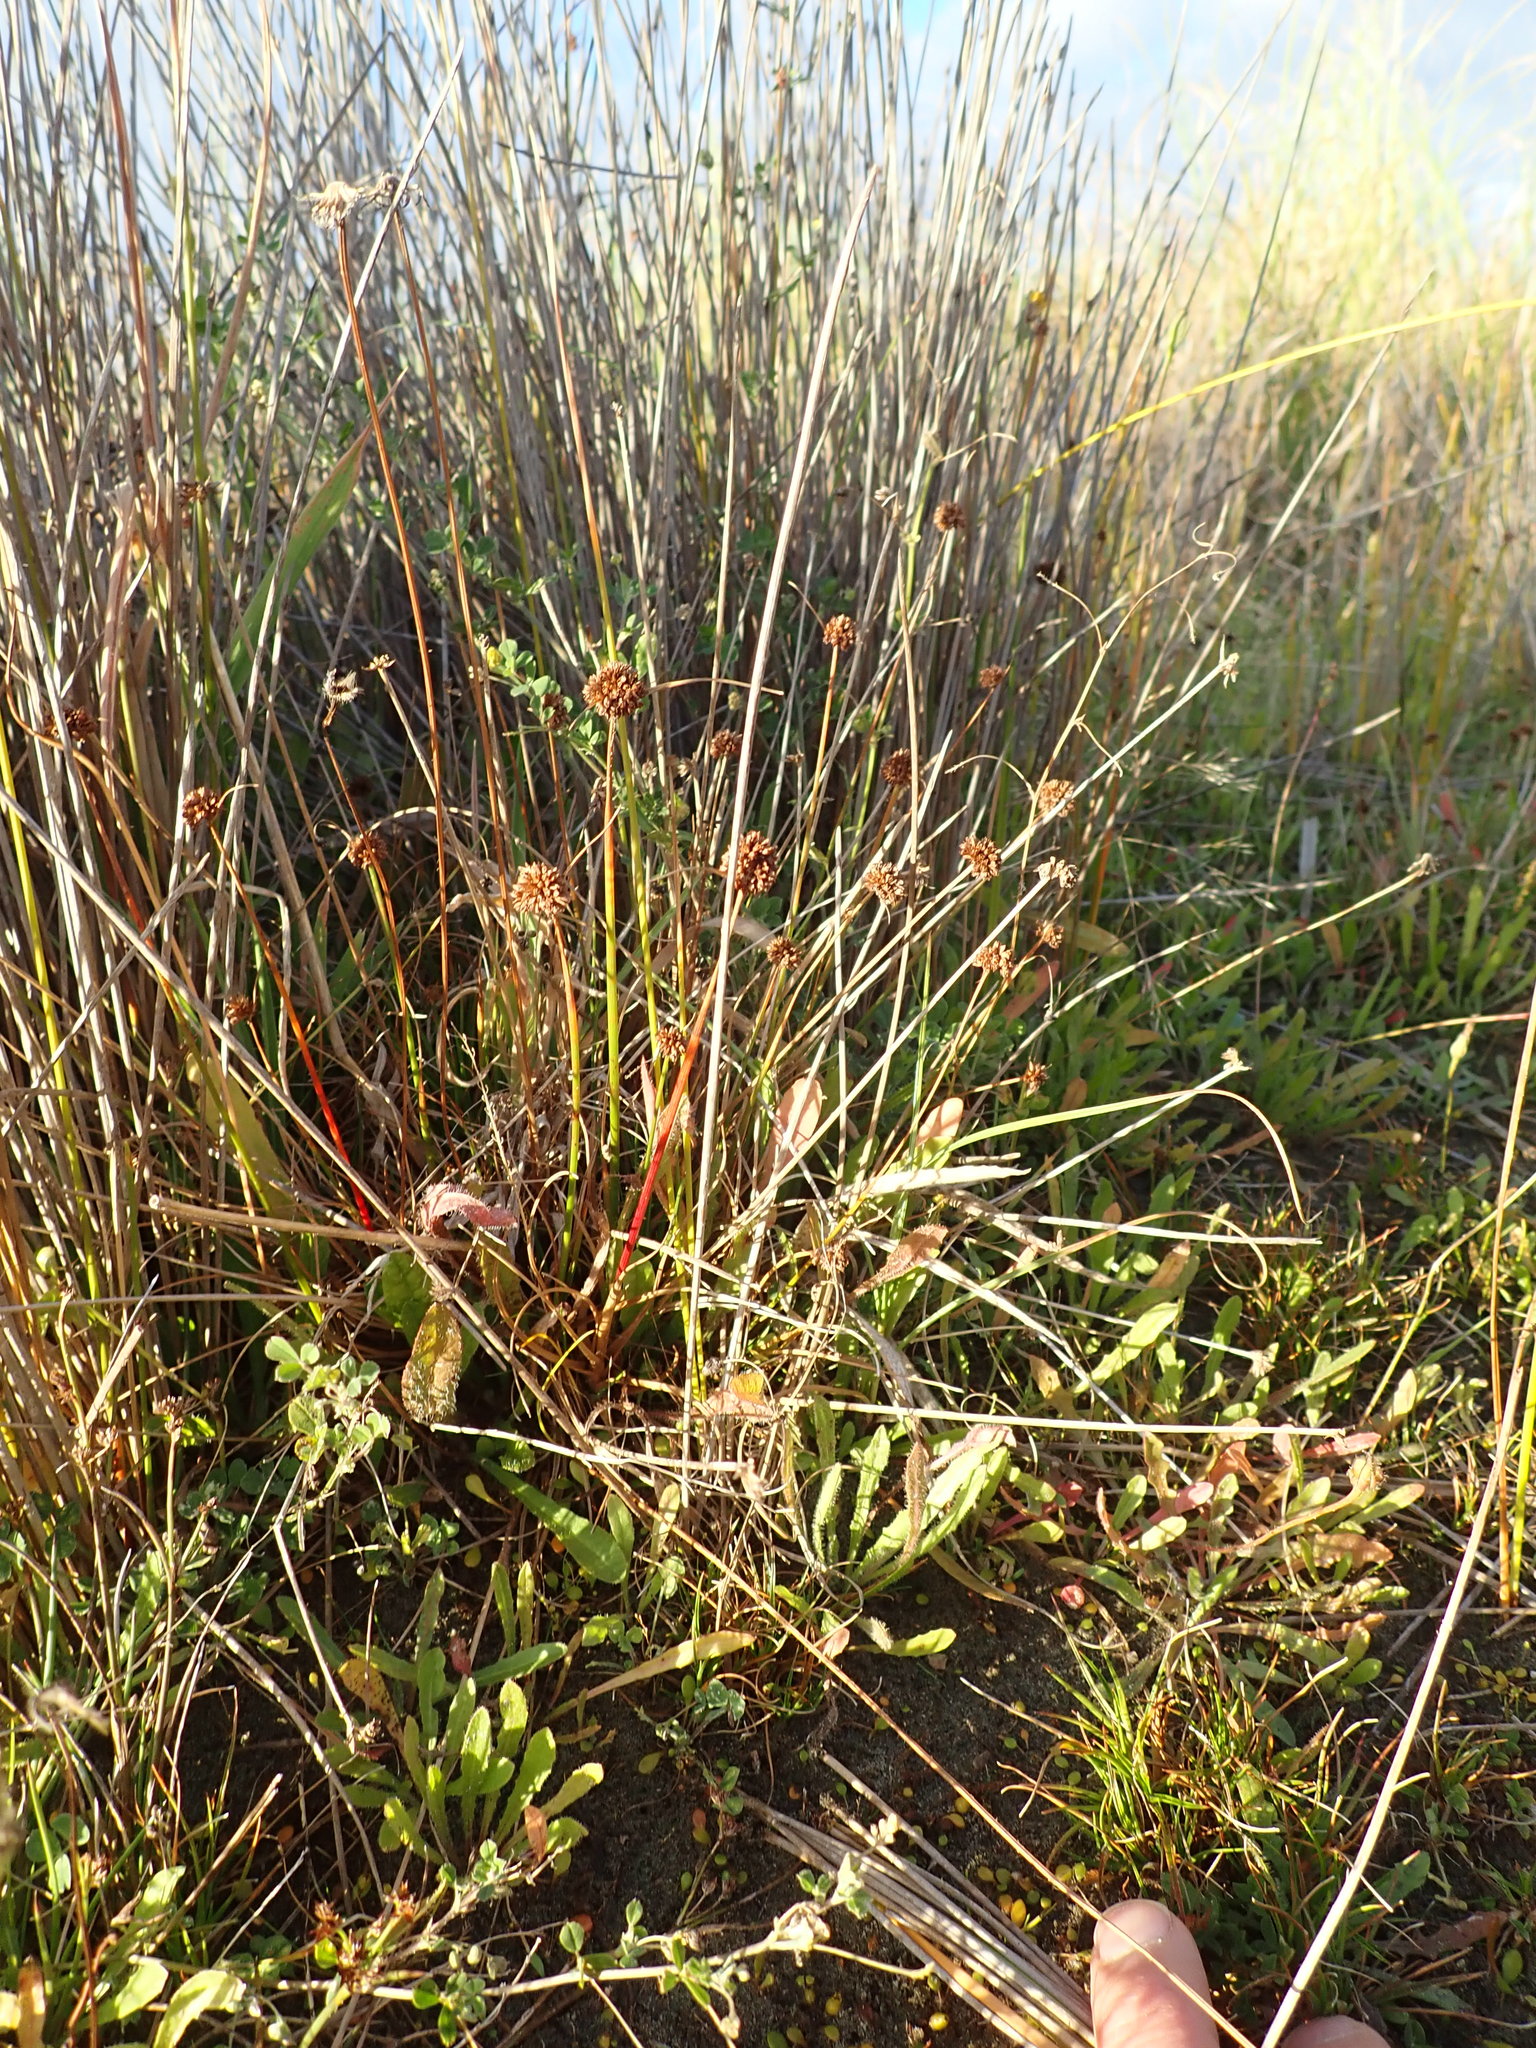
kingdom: Plantae
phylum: Tracheophyta
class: Liliopsida
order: Poales
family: Juncaceae
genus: Juncus
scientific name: Juncus caespiticius
